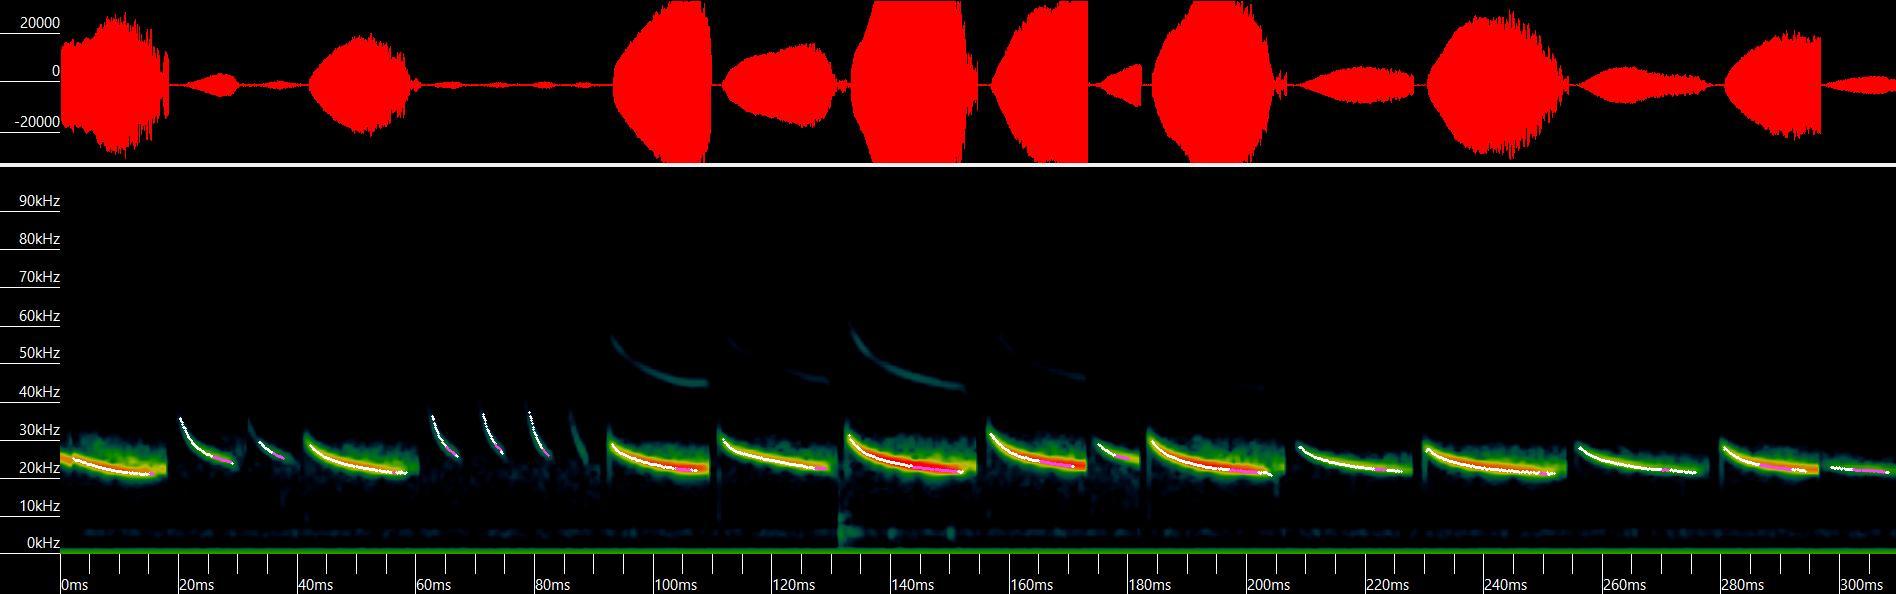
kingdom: Animalia
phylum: Chordata
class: Mammalia
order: Chiroptera
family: Vespertilionidae
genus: Aeorestes
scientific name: Aeorestes cinereus
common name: North american hoary bat
